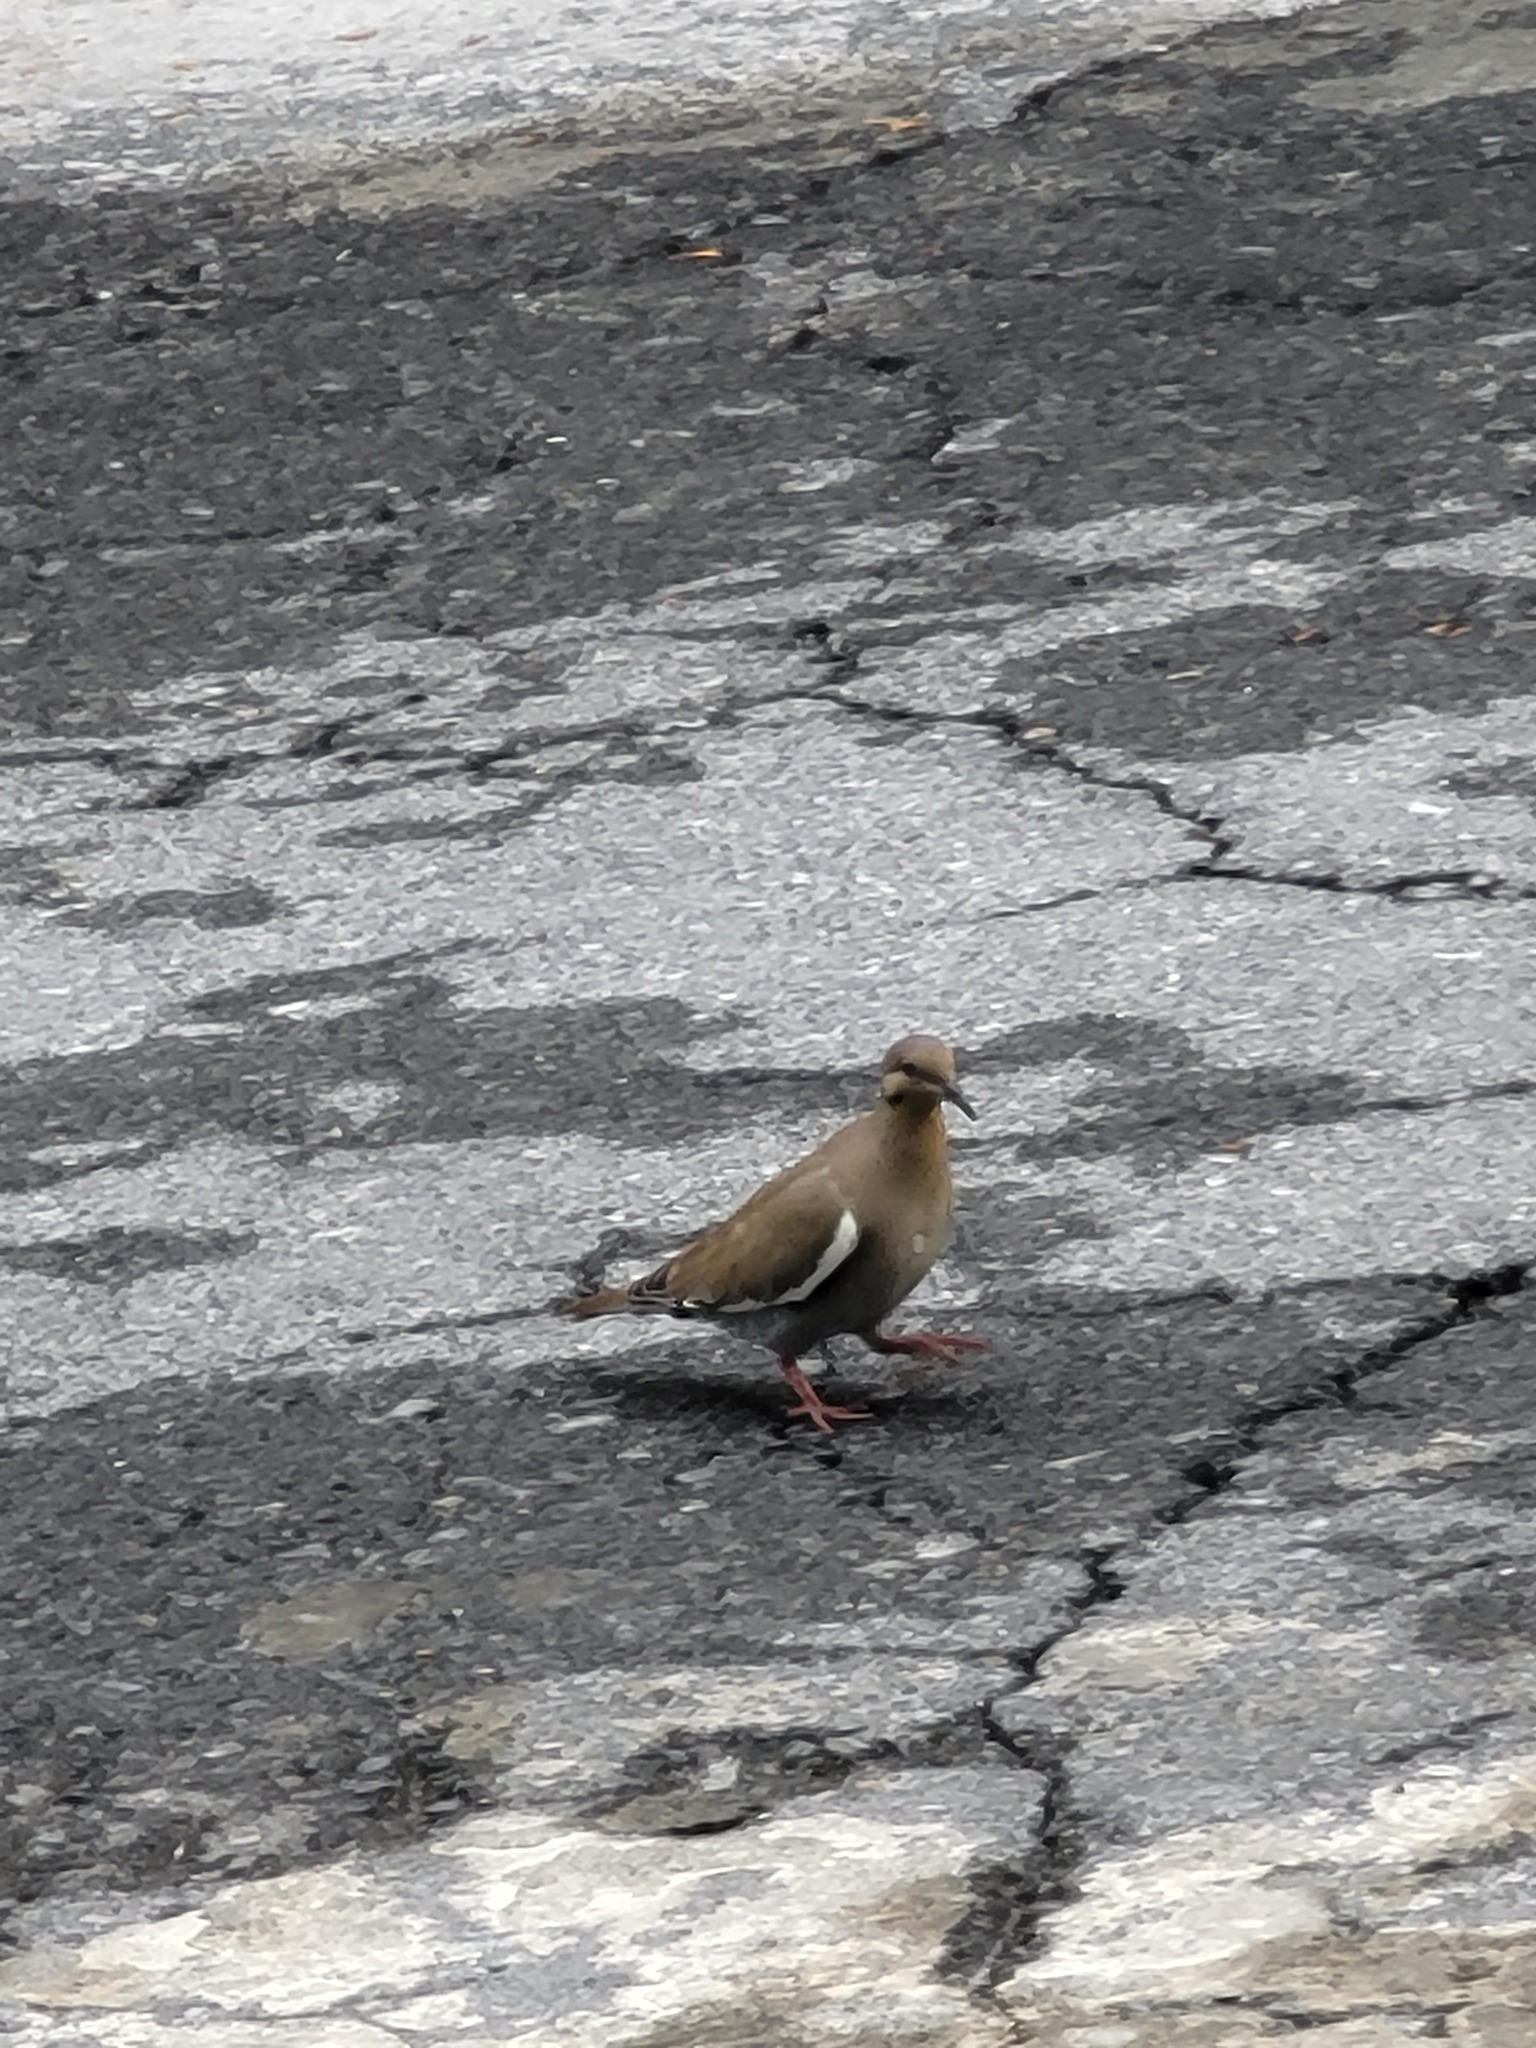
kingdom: Animalia
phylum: Chordata
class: Aves
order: Columbiformes
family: Columbidae
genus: Zenaida
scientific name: Zenaida asiatica
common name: White-winged dove
